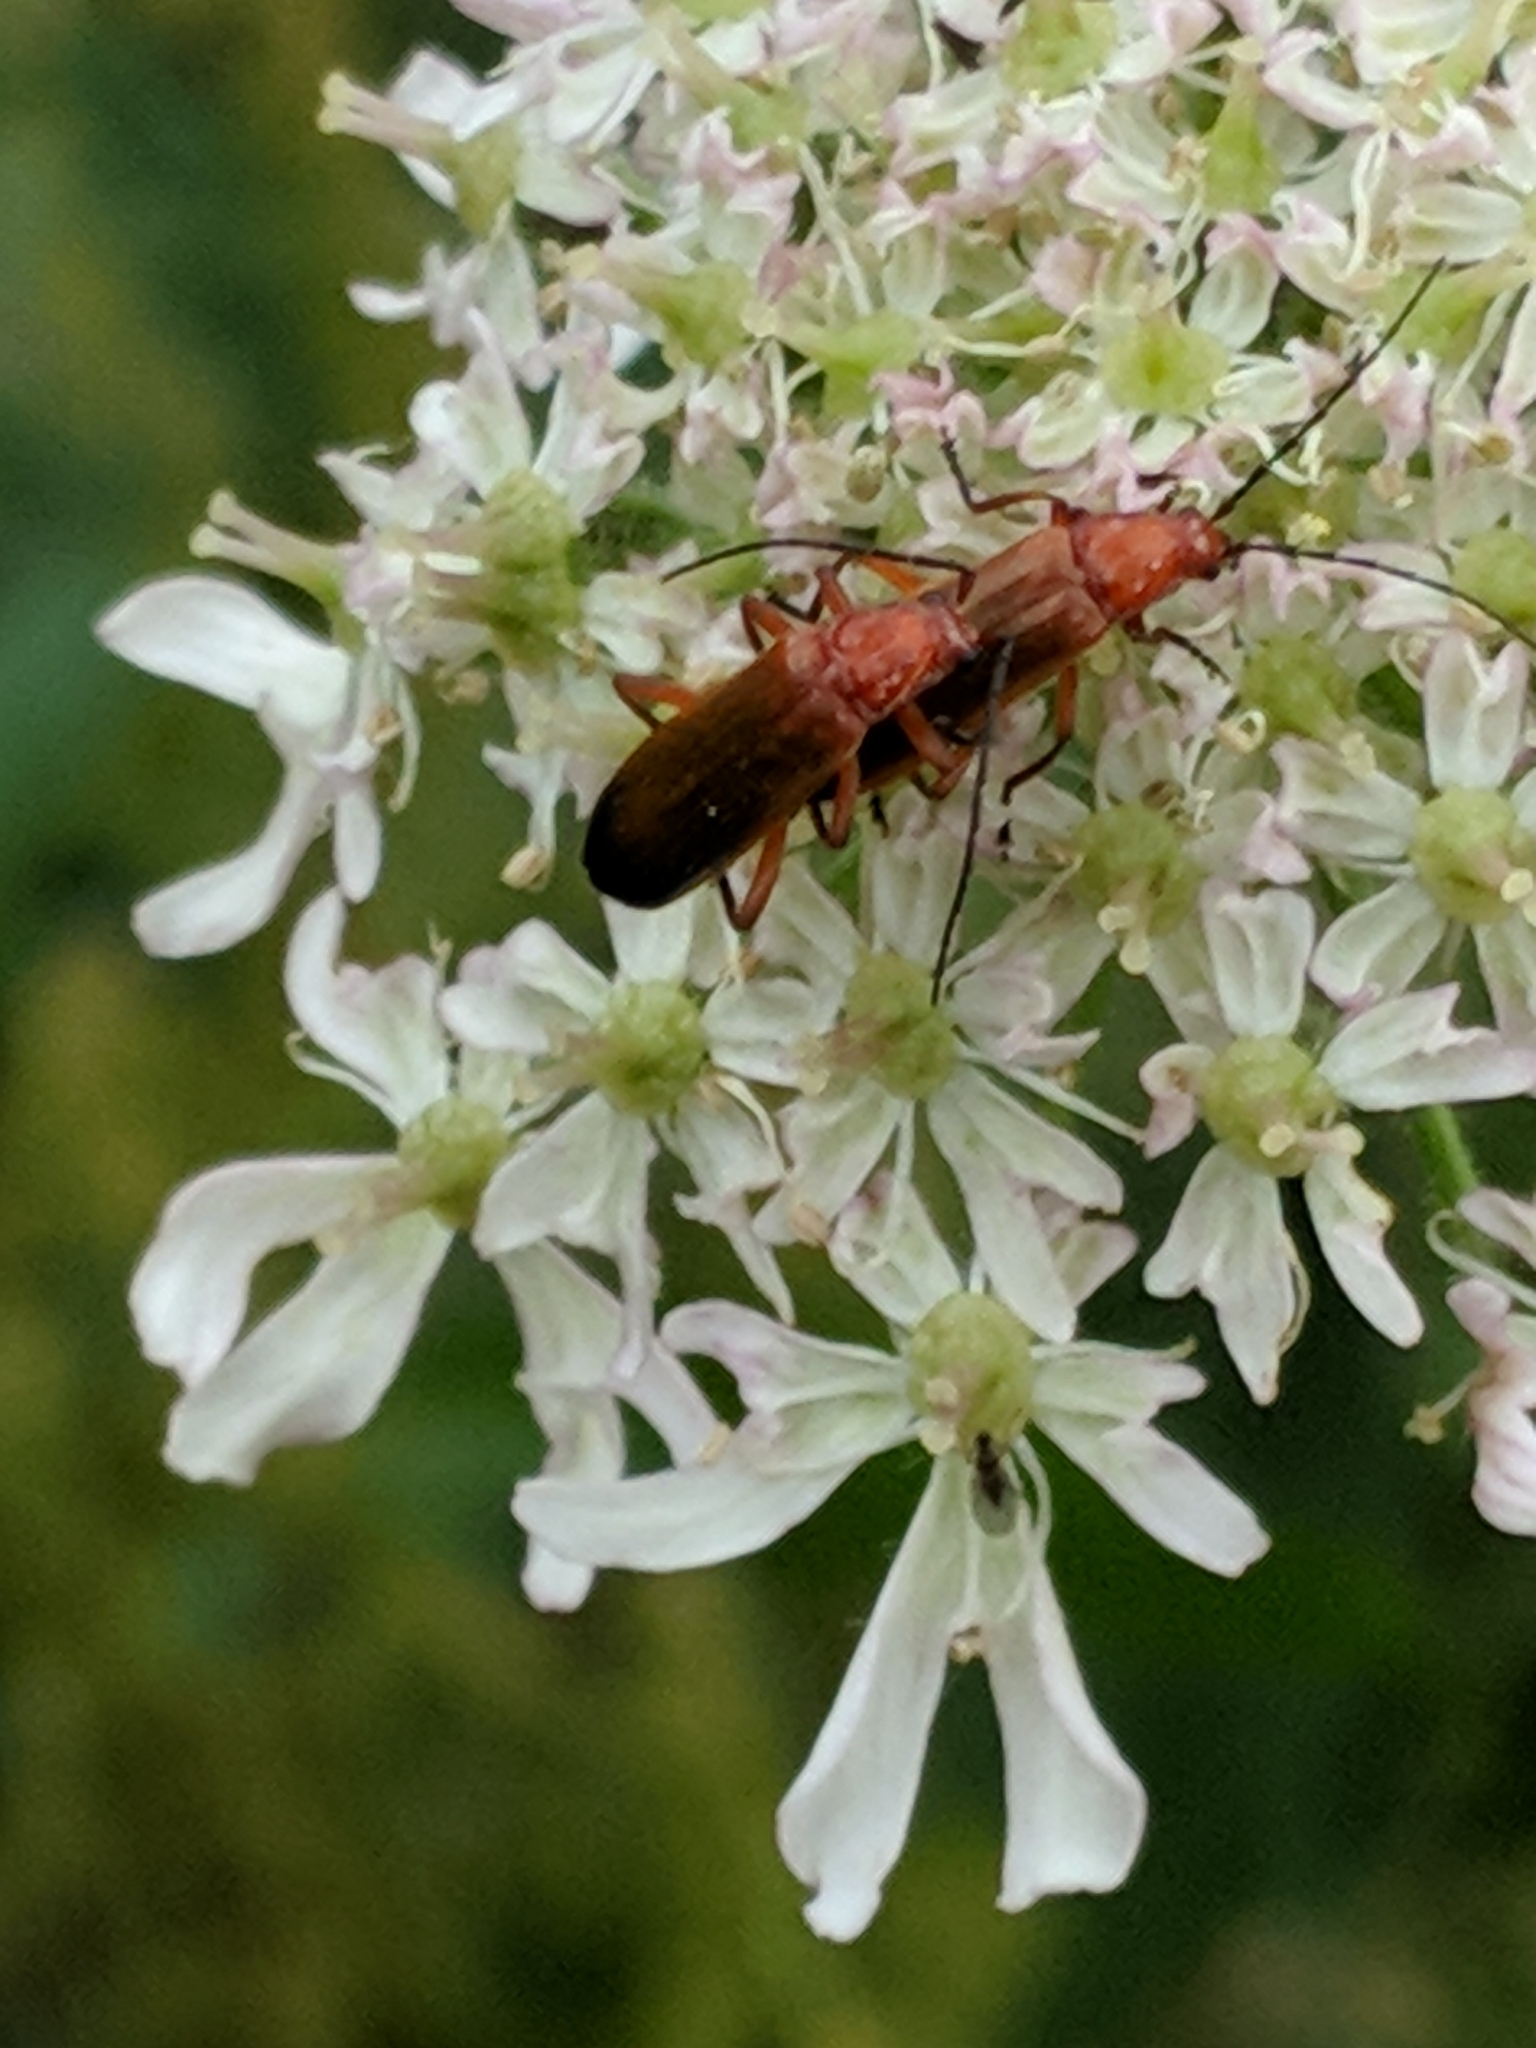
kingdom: Animalia
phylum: Arthropoda
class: Insecta
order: Coleoptera
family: Cantharidae
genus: Rhagonycha
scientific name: Rhagonycha fulva
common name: Common red soldier beetle
